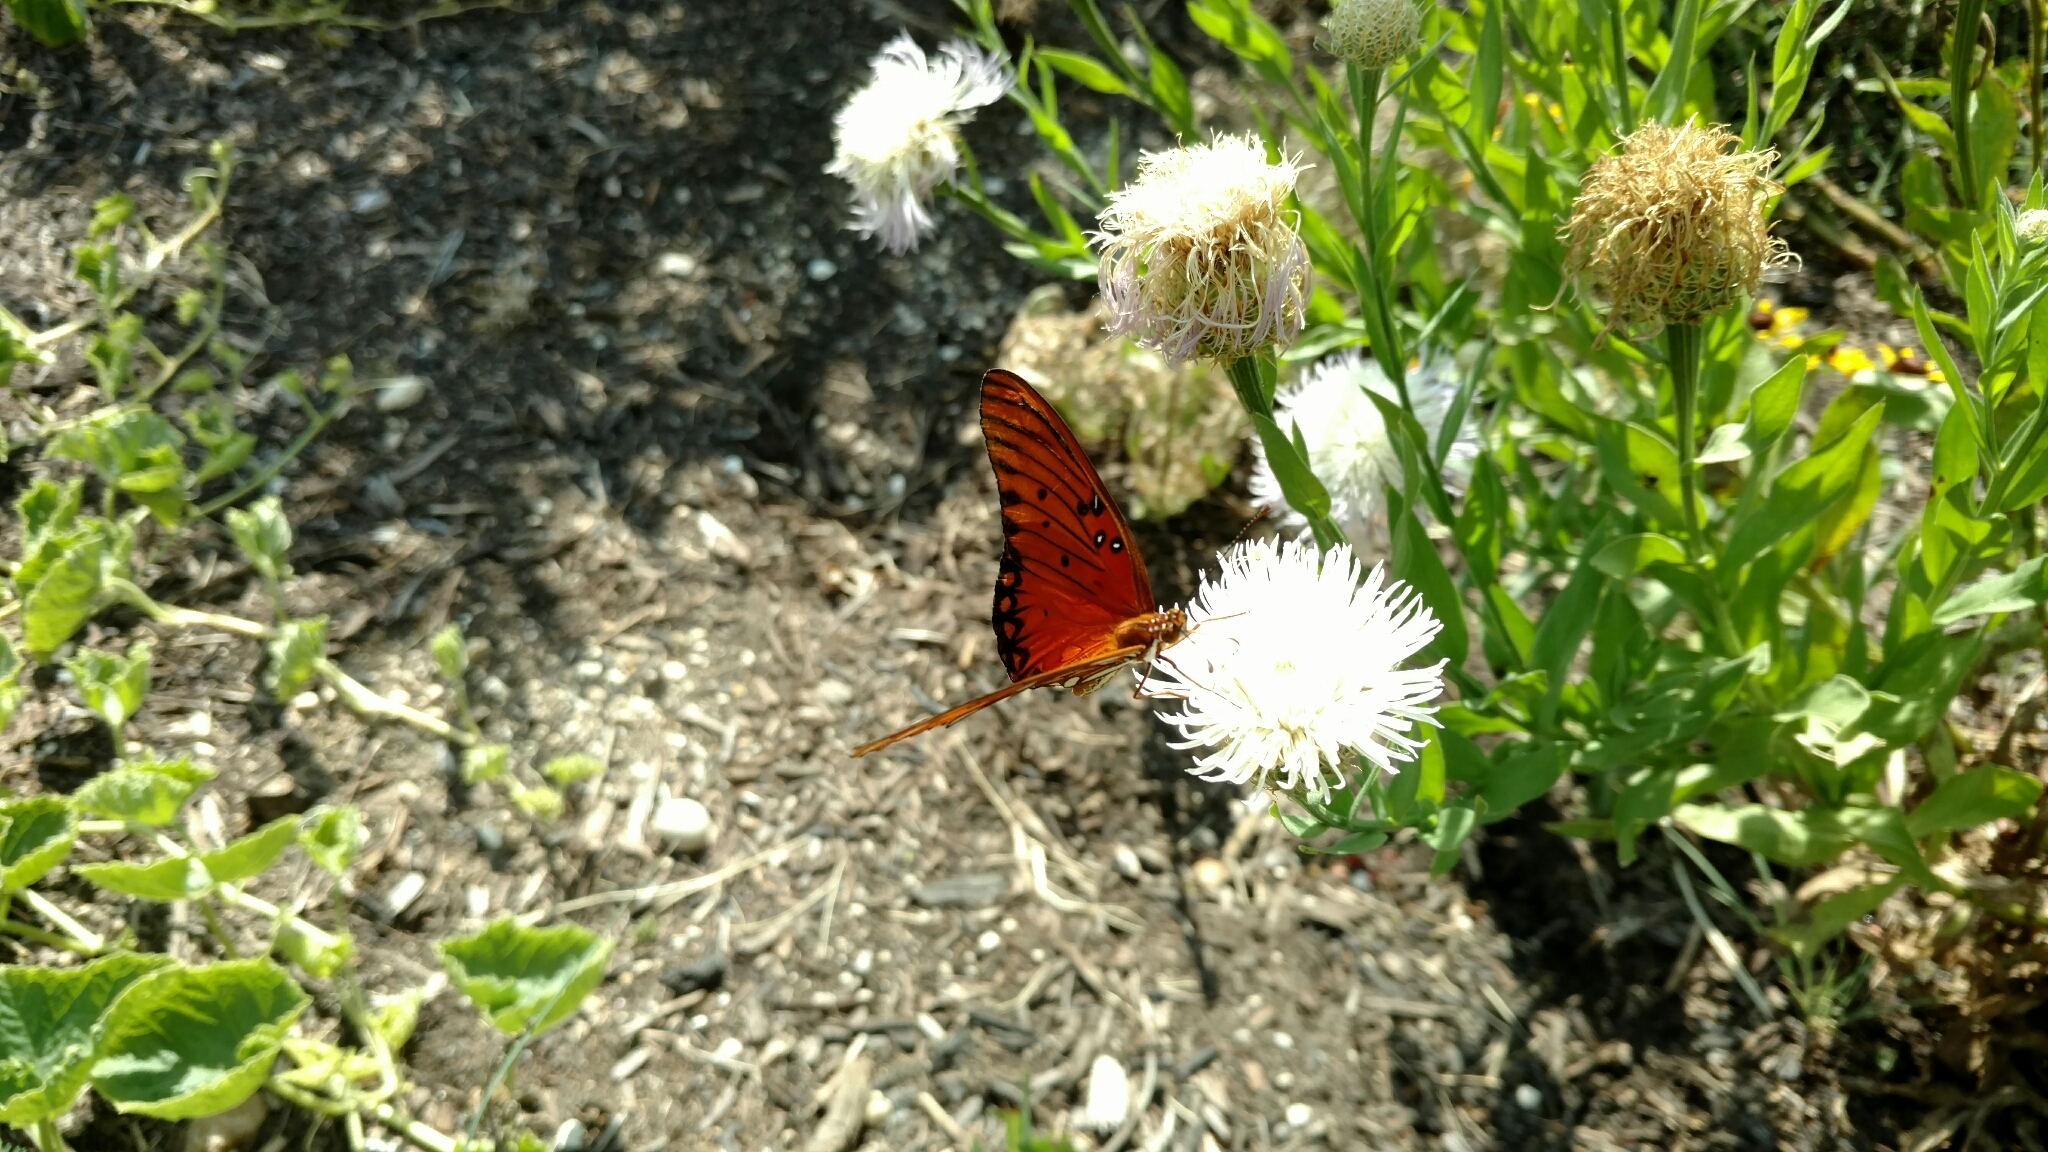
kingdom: Animalia
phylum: Arthropoda
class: Insecta
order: Lepidoptera
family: Nymphalidae
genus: Dione
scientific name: Dione vanillae
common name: Gulf fritillary
